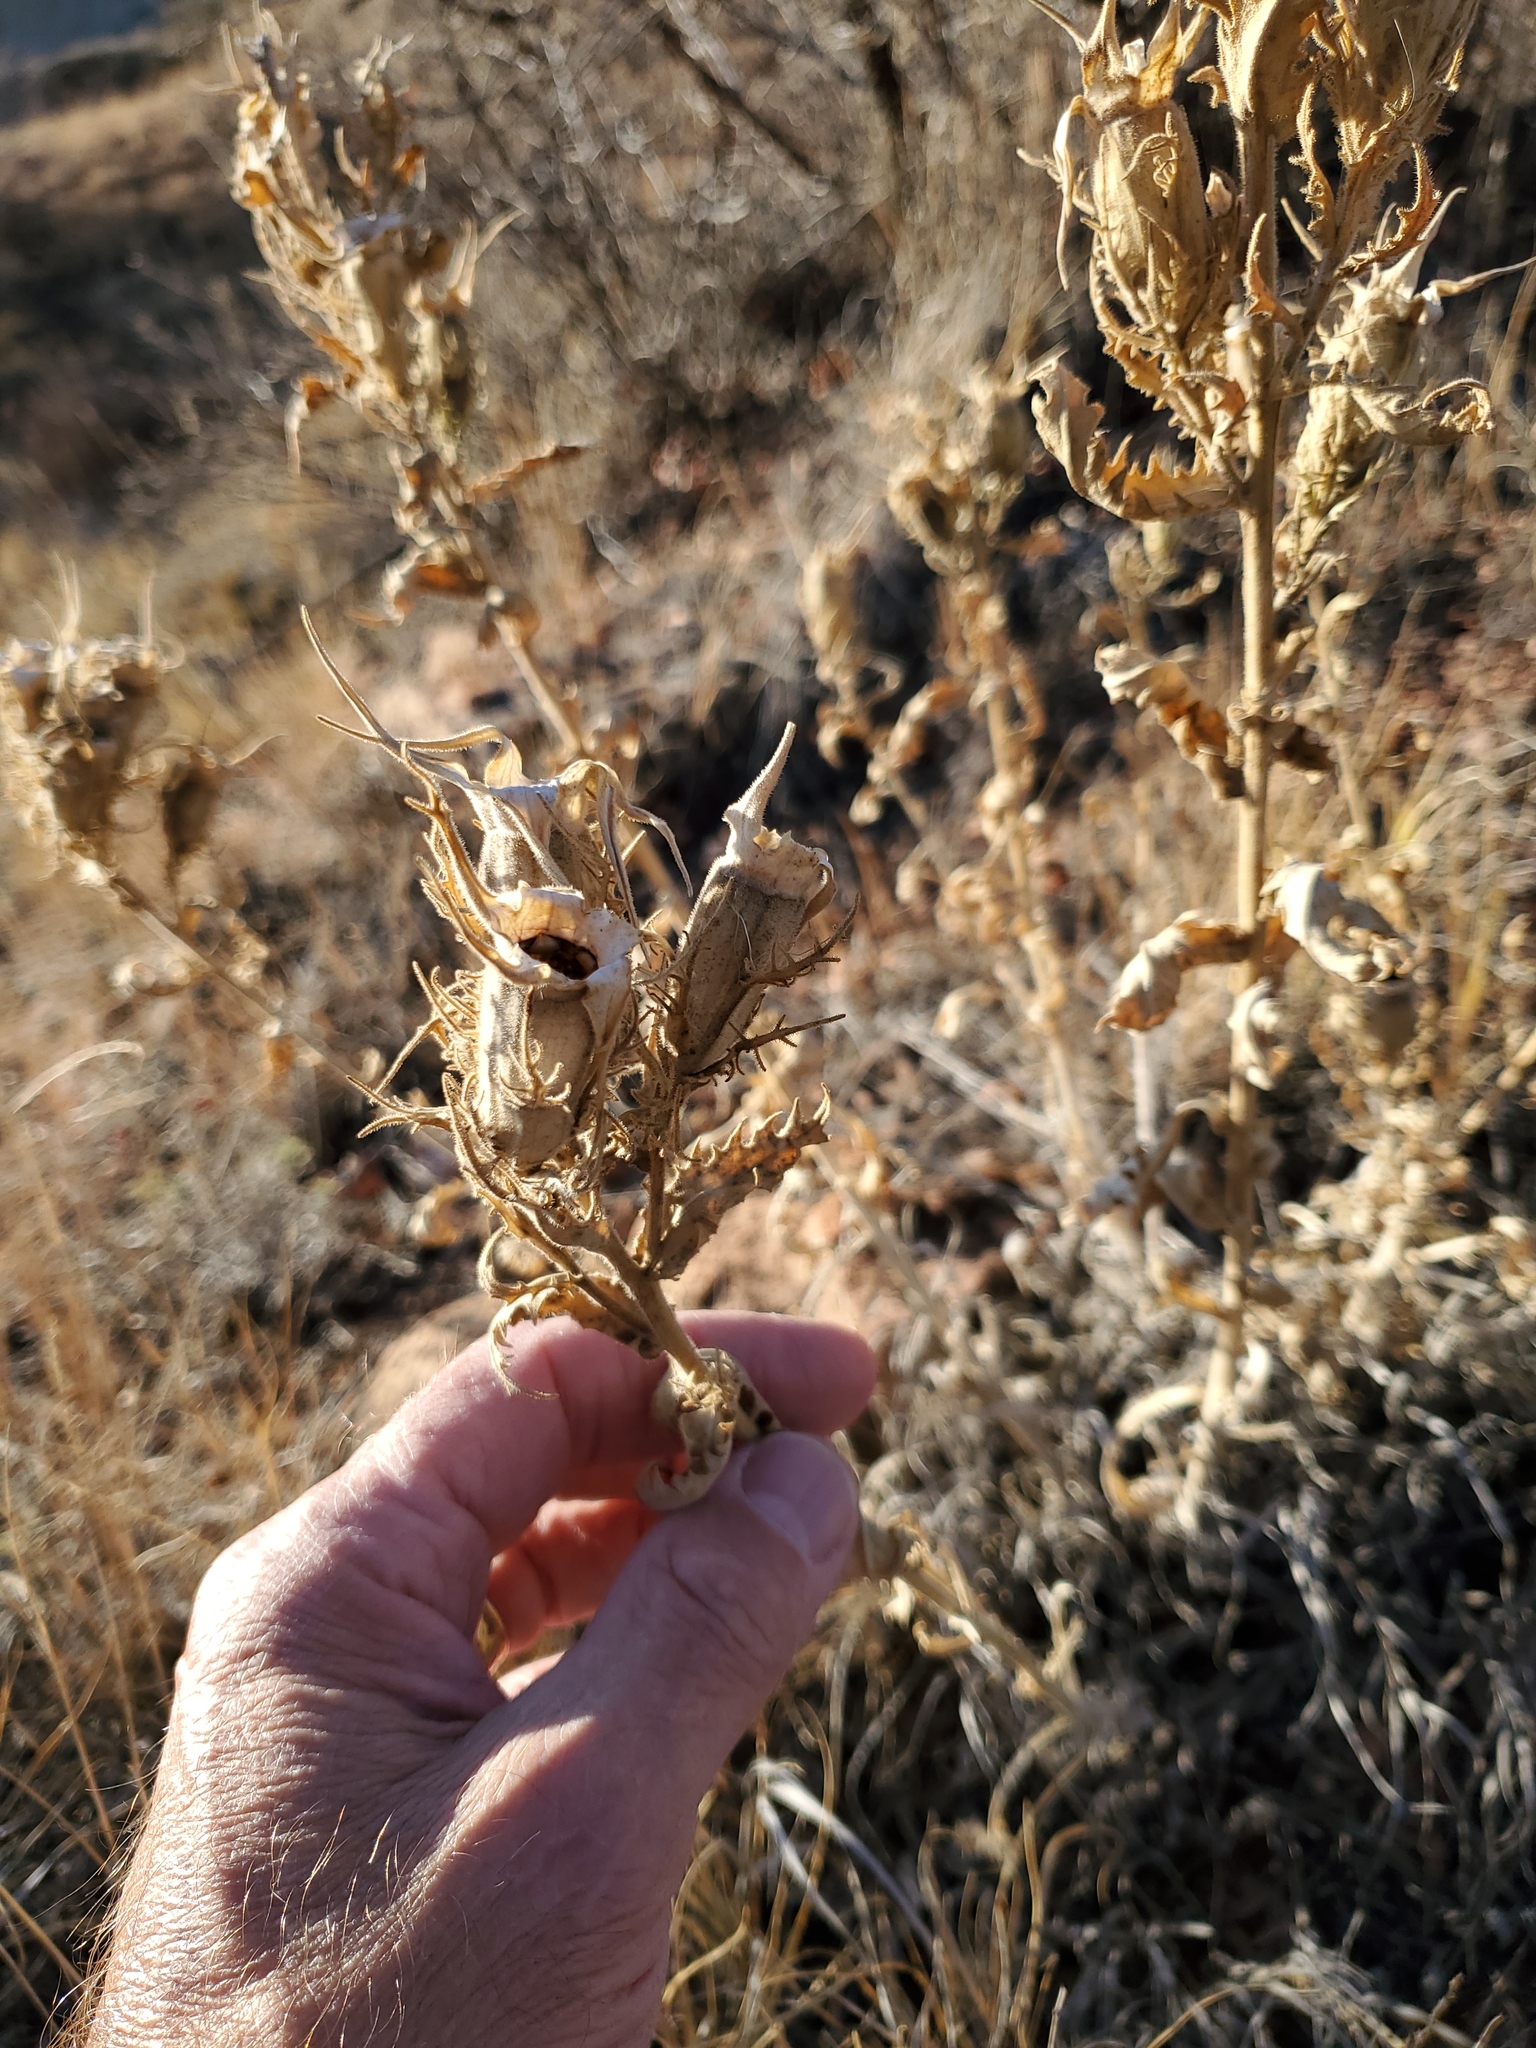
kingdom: Plantae
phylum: Tracheophyta
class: Magnoliopsida
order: Cornales
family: Loasaceae
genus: Mentzelia
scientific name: Mentzelia decapetala
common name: Gumbo-lily
